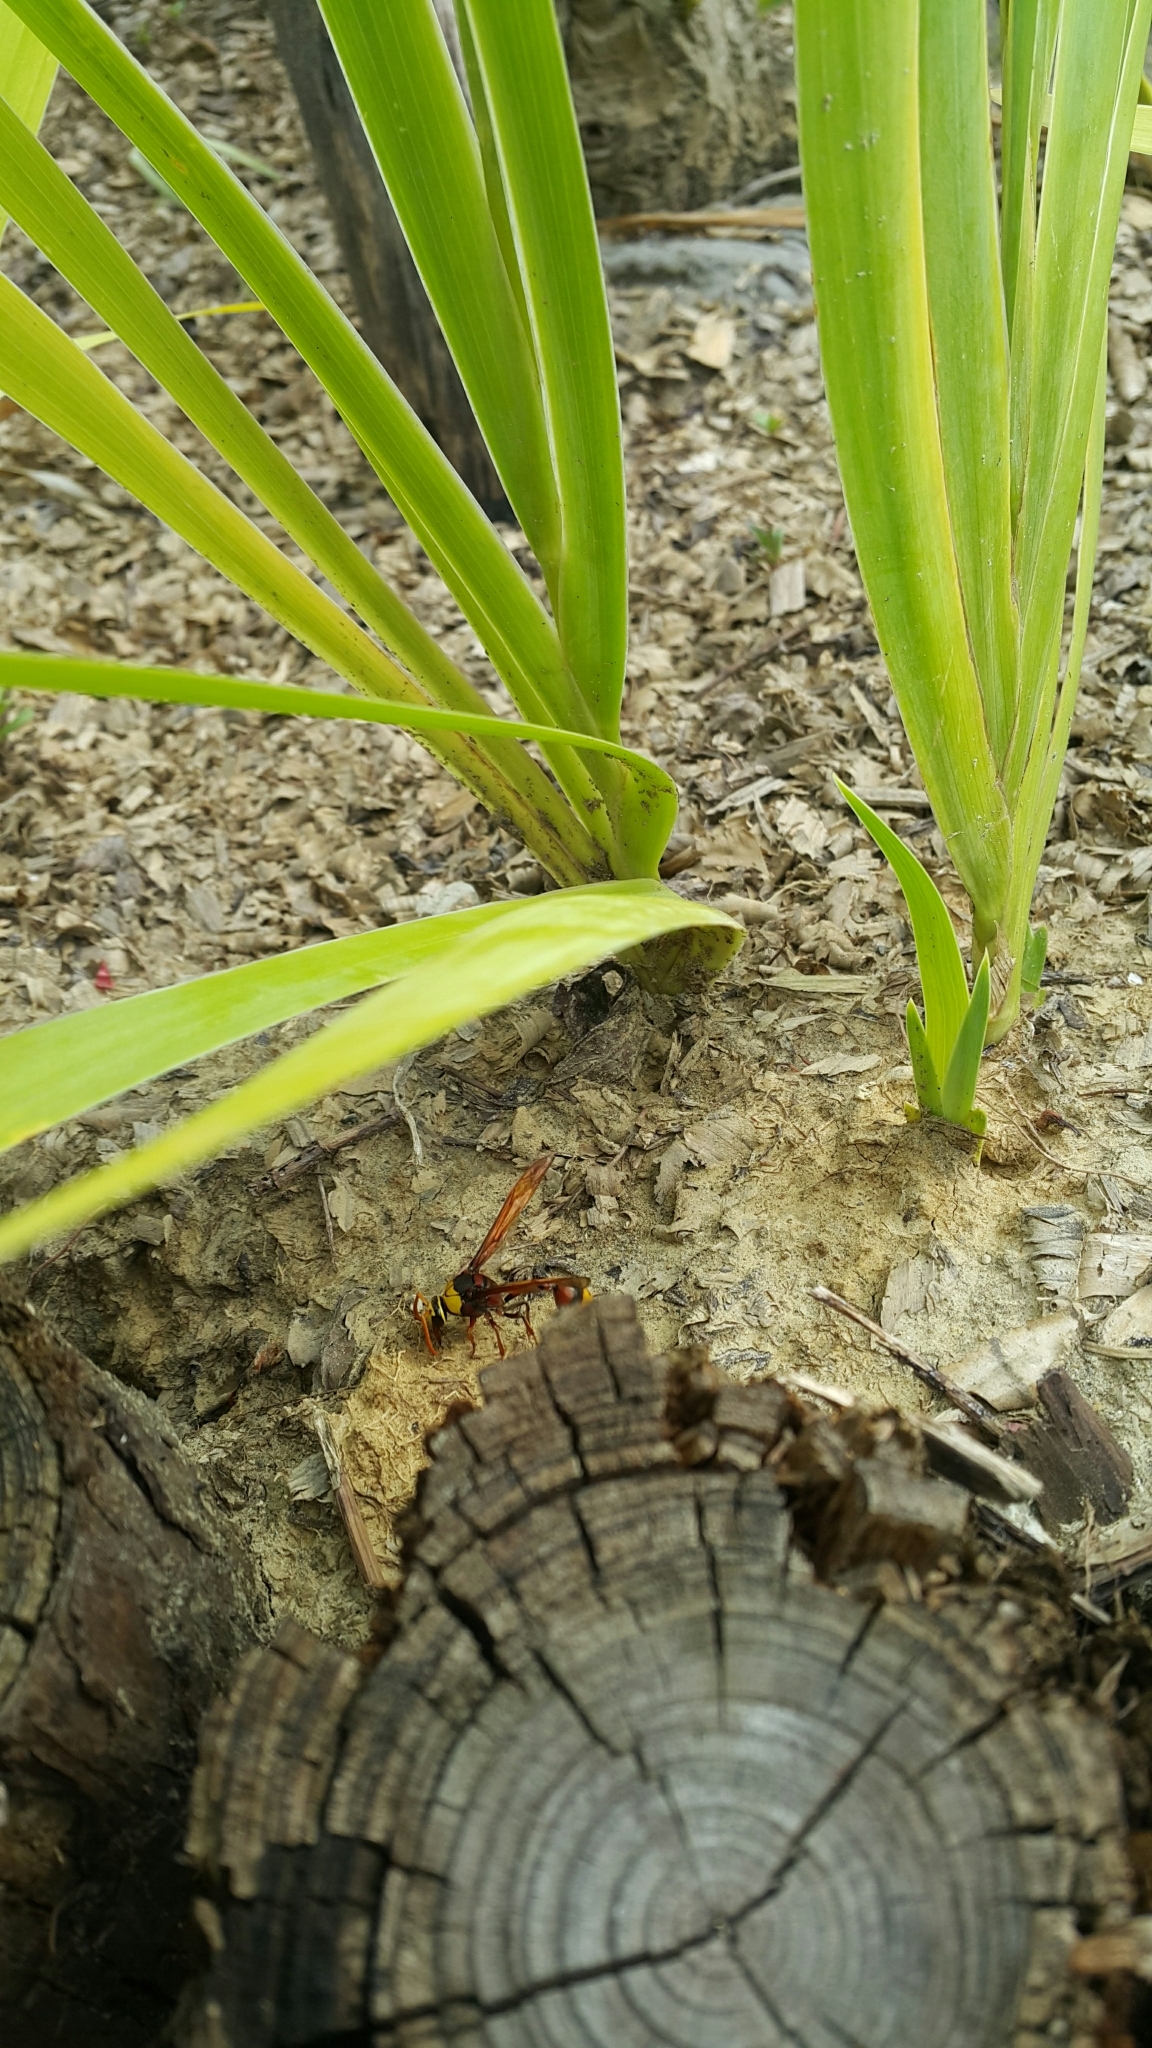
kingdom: Animalia
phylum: Arthropoda
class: Insecta
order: Hymenoptera
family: Eumenidae
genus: Delta
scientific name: Delta pyriforme
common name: Wasp
